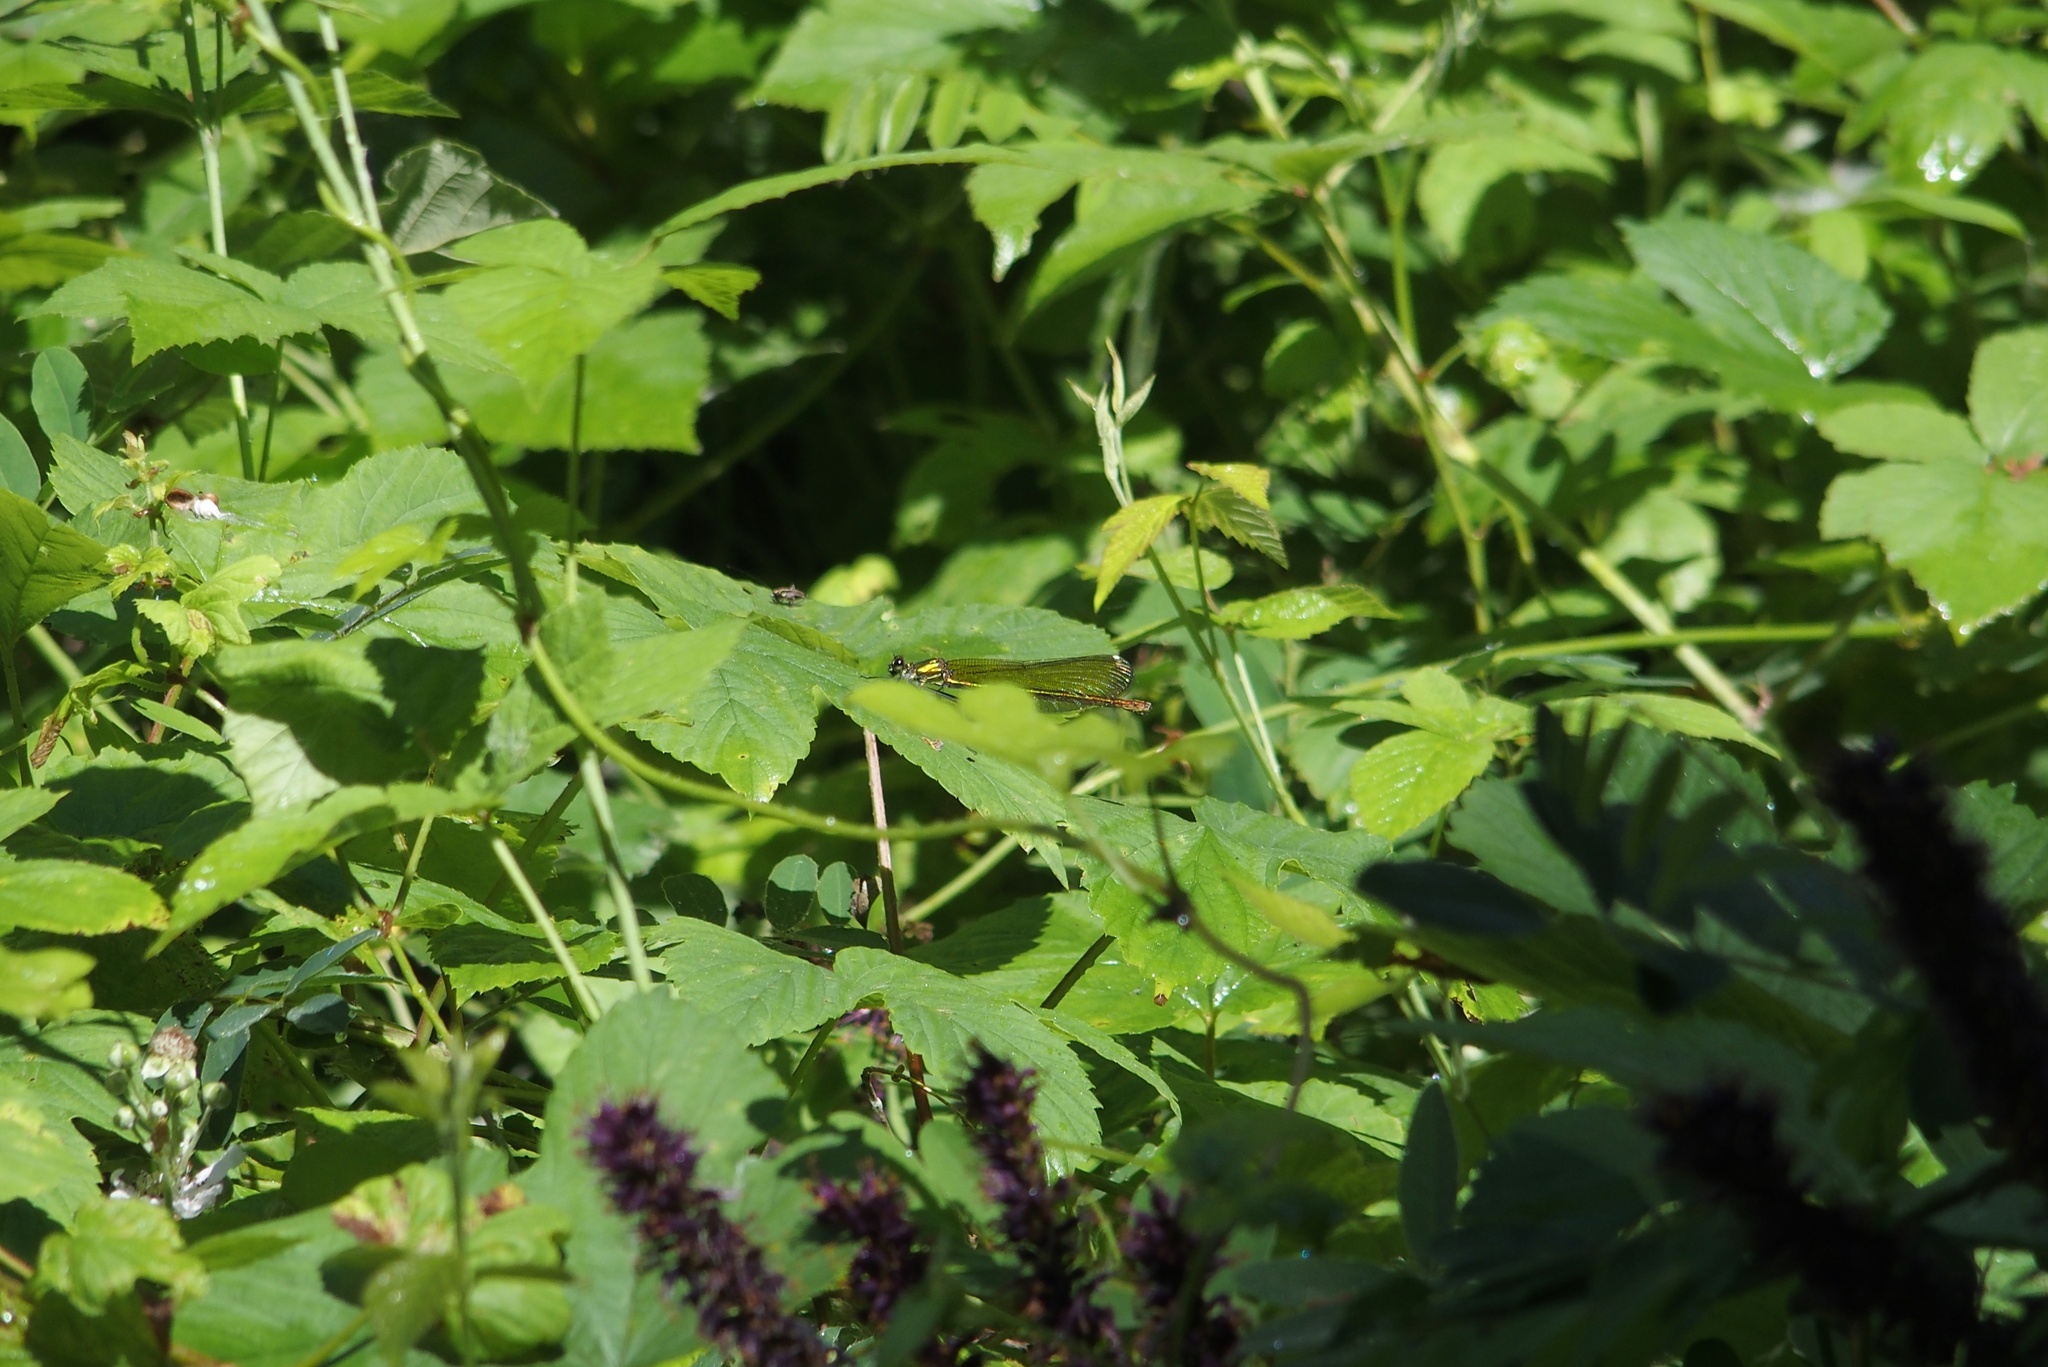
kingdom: Animalia
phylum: Arthropoda
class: Insecta
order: Odonata
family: Calopterygidae
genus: Calopteryx
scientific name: Calopteryx splendens
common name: Banded demoiselle
